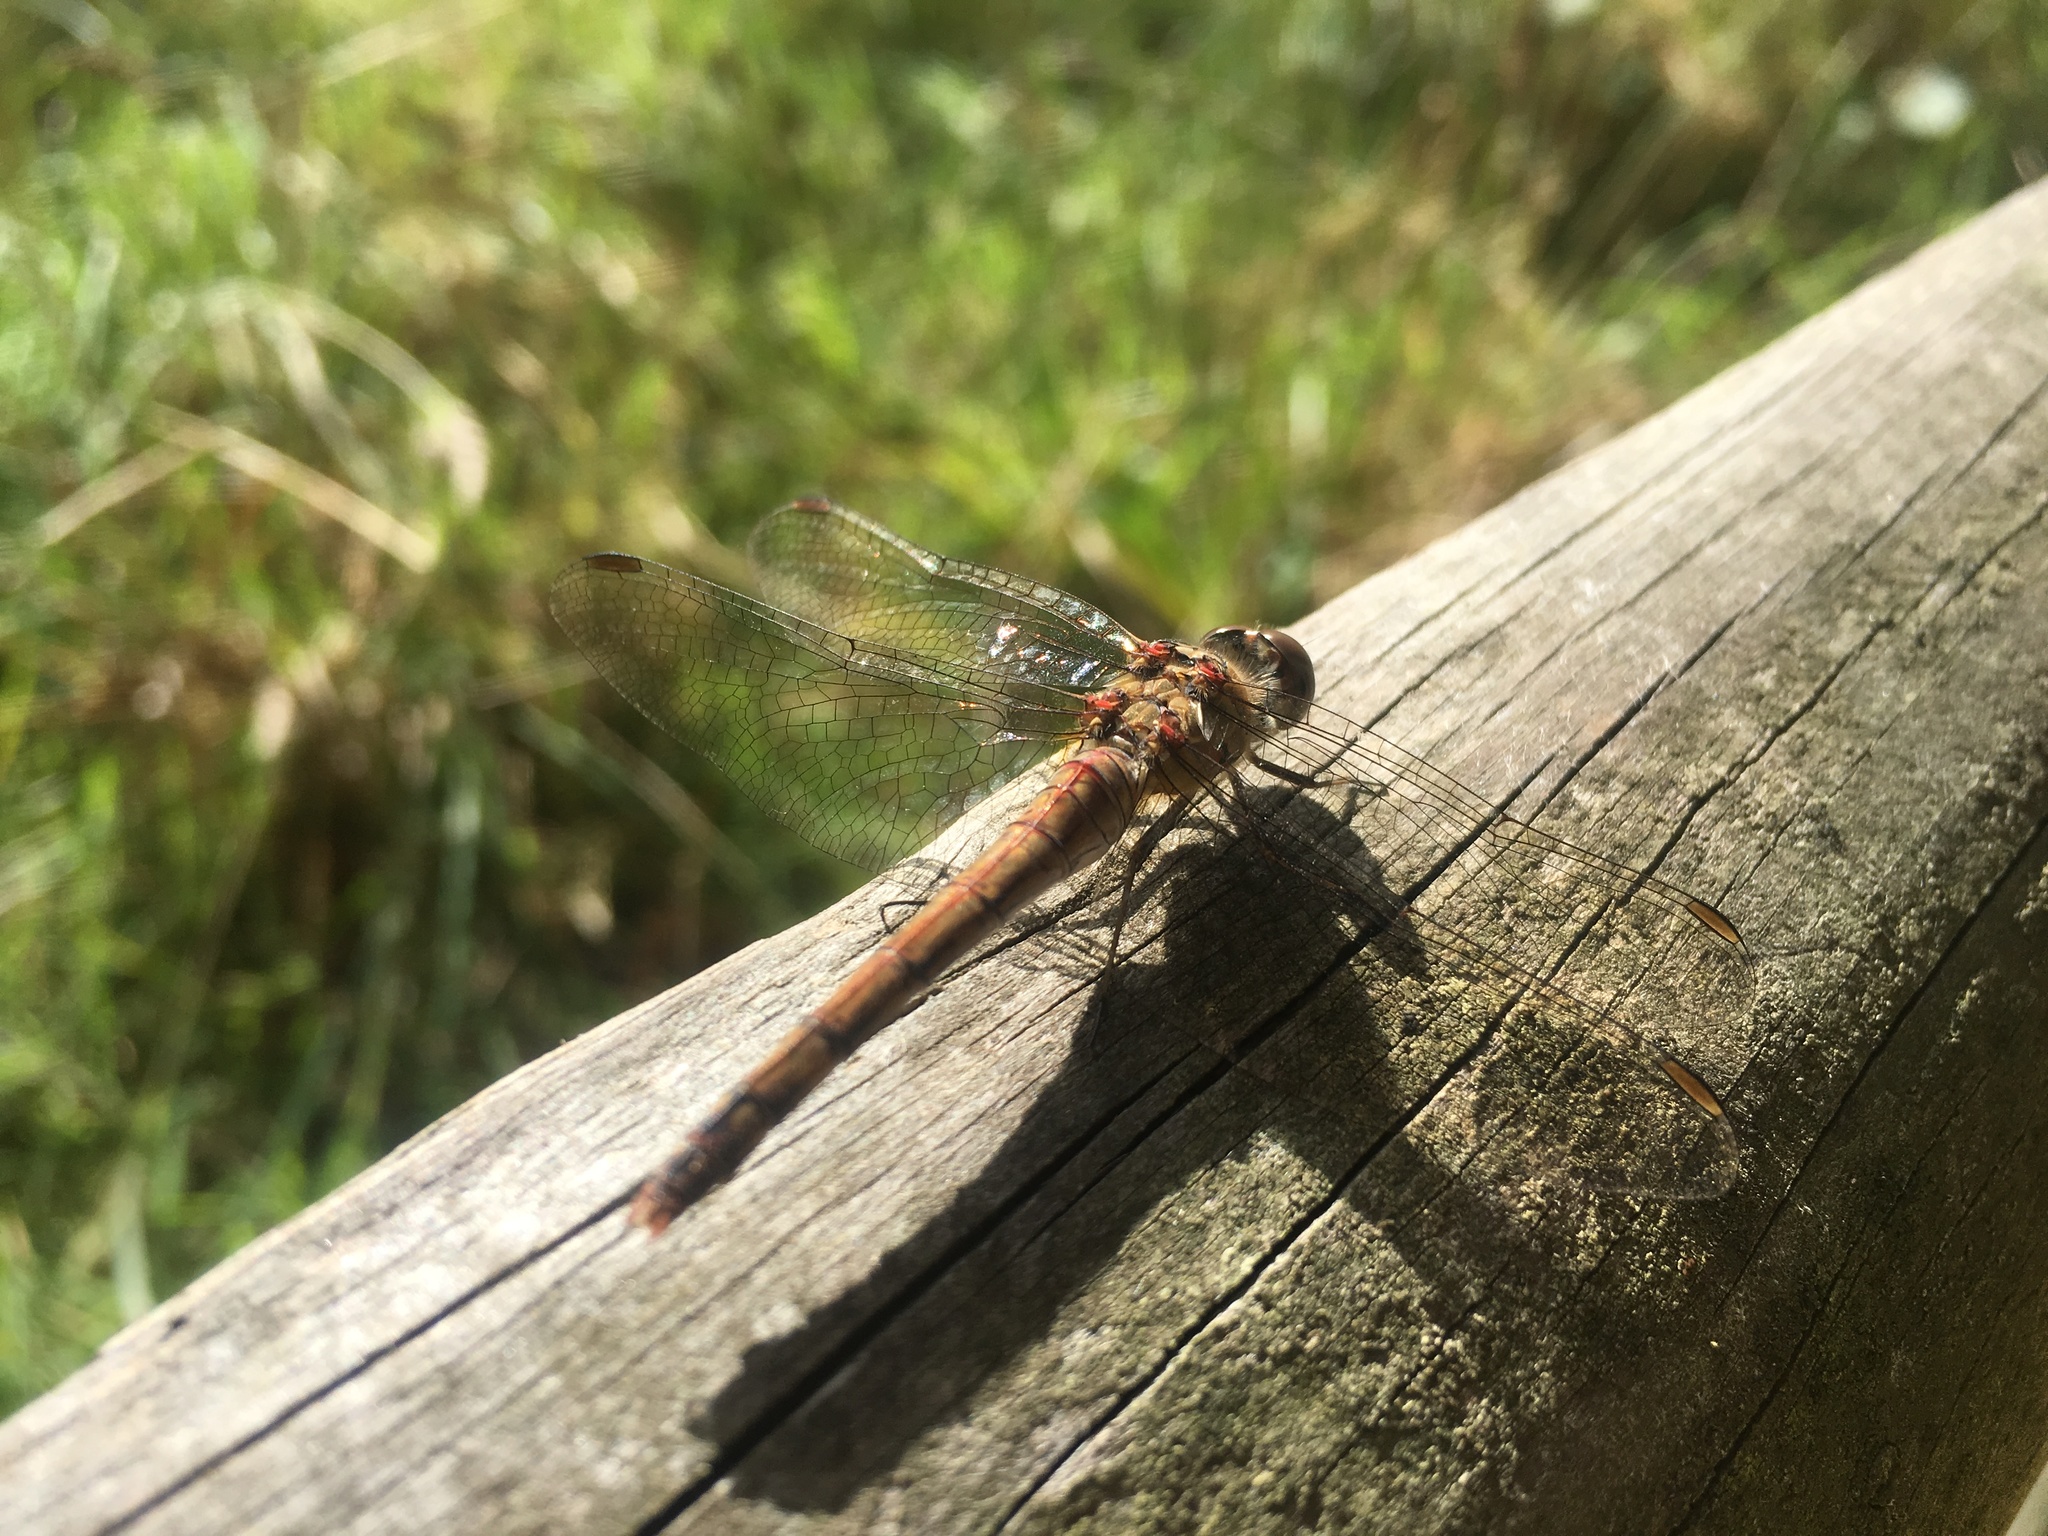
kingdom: Animalia
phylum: Arthropoda
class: Insecta
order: Odonata
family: Libellulidae
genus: Sympetrum
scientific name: Sympetrum striolatum
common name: Common darter
